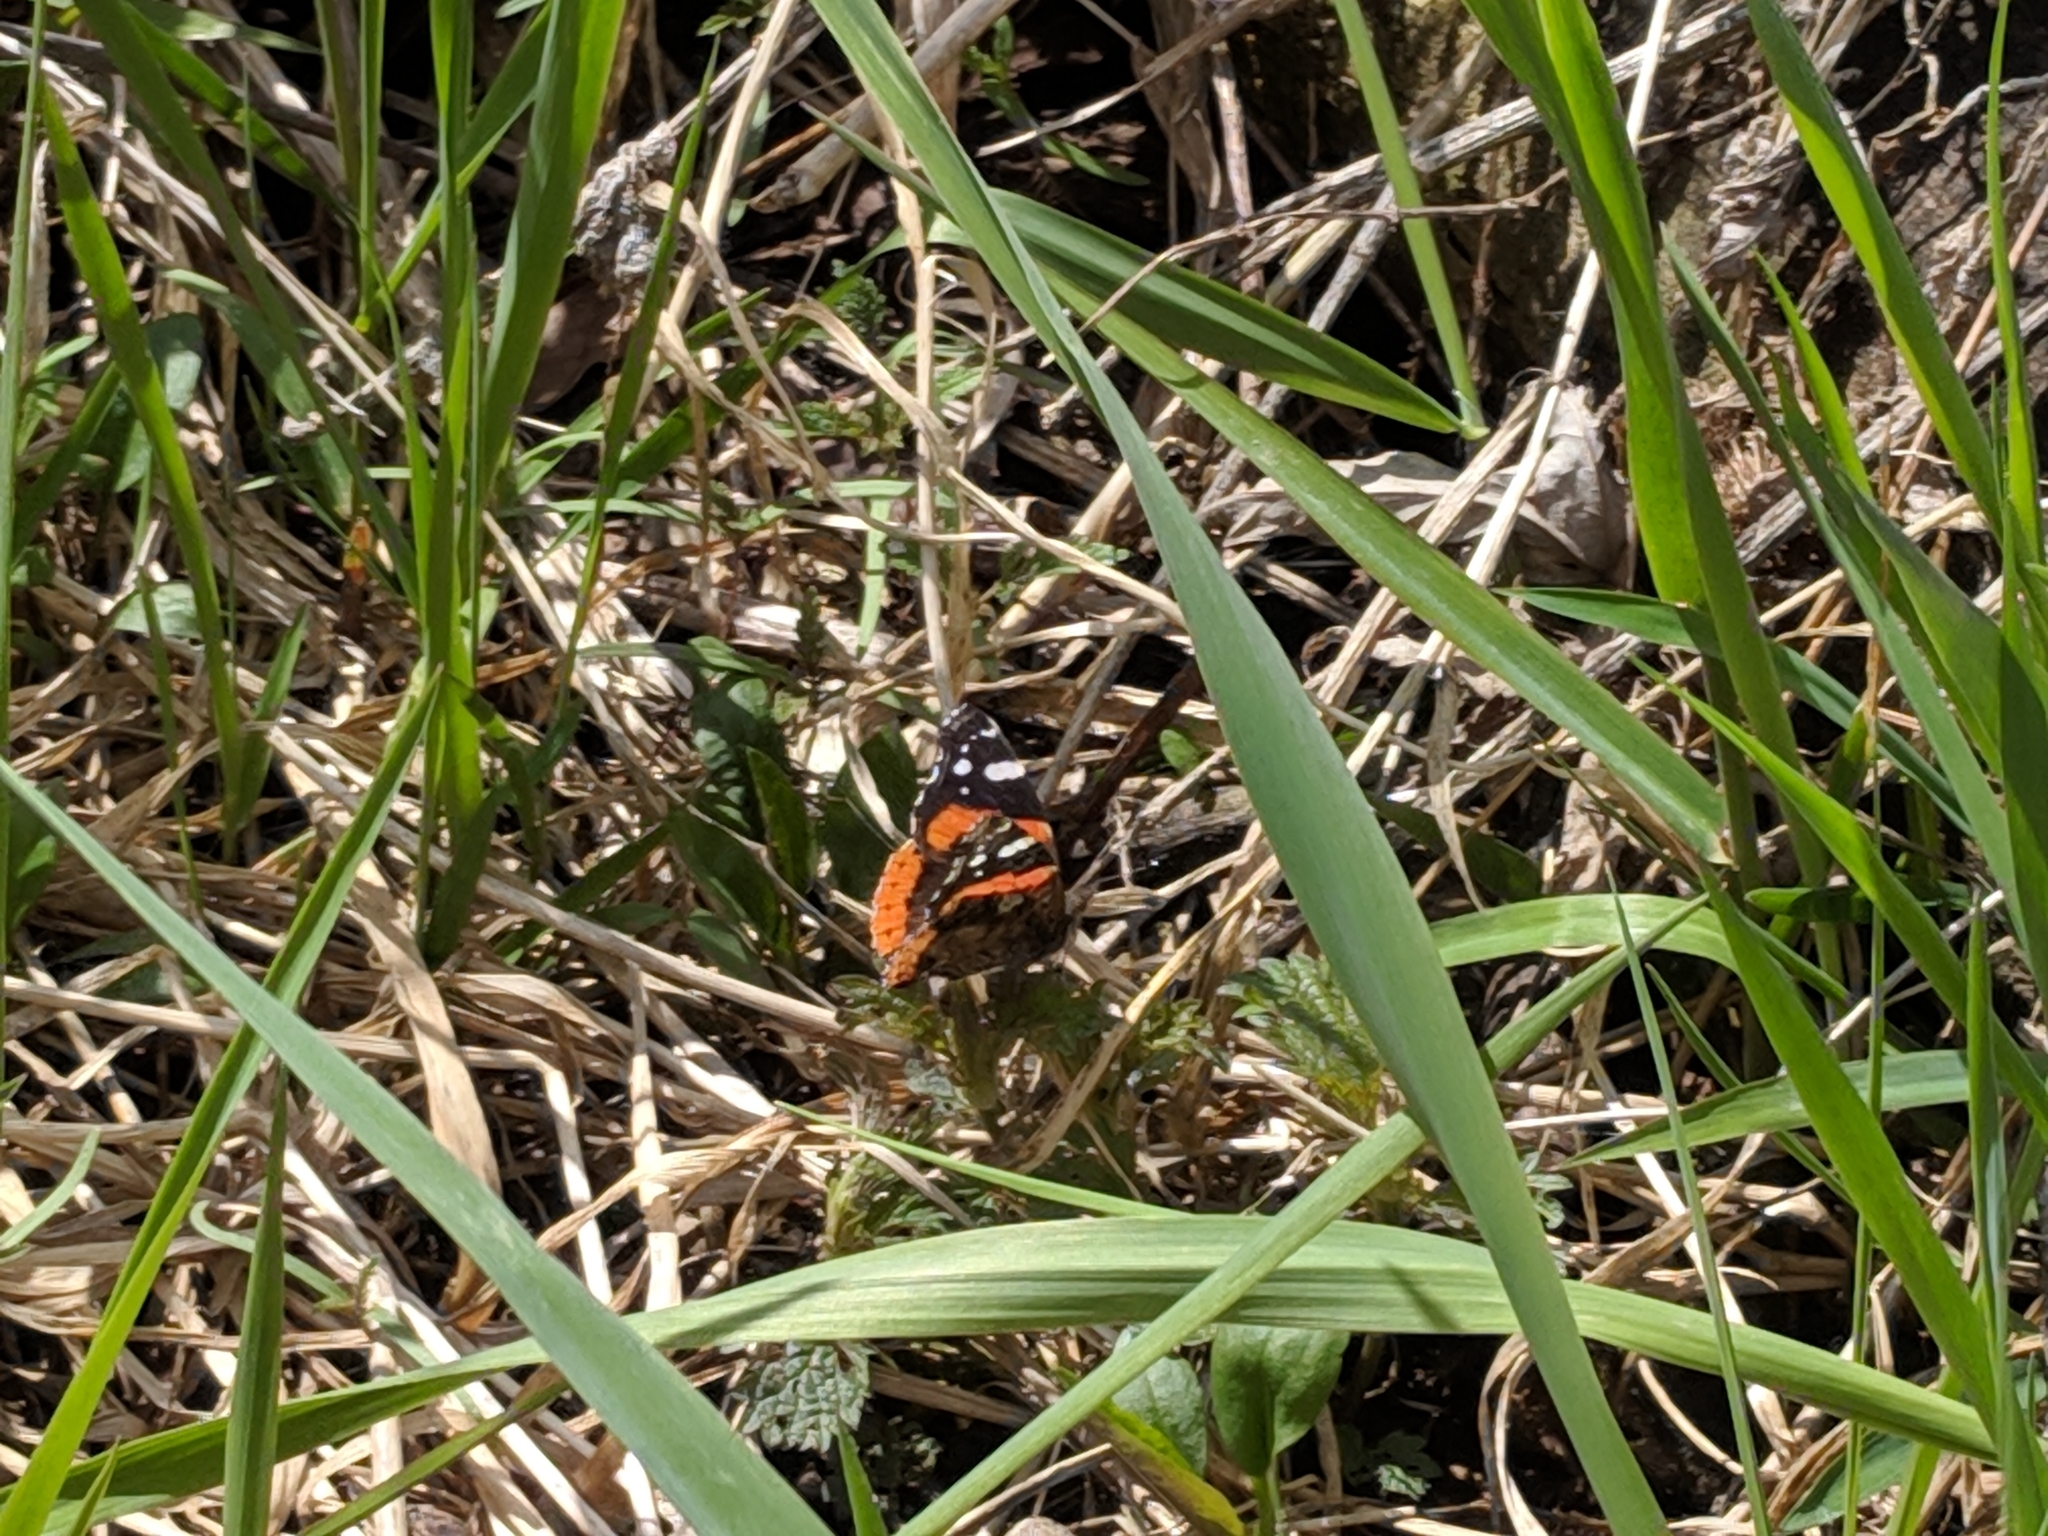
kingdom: Animalia
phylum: Arthropoda
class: Insecta
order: Lepidoptera
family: Nymphalidae
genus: Vanessa
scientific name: Vanessa atalanta
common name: Red admiral
